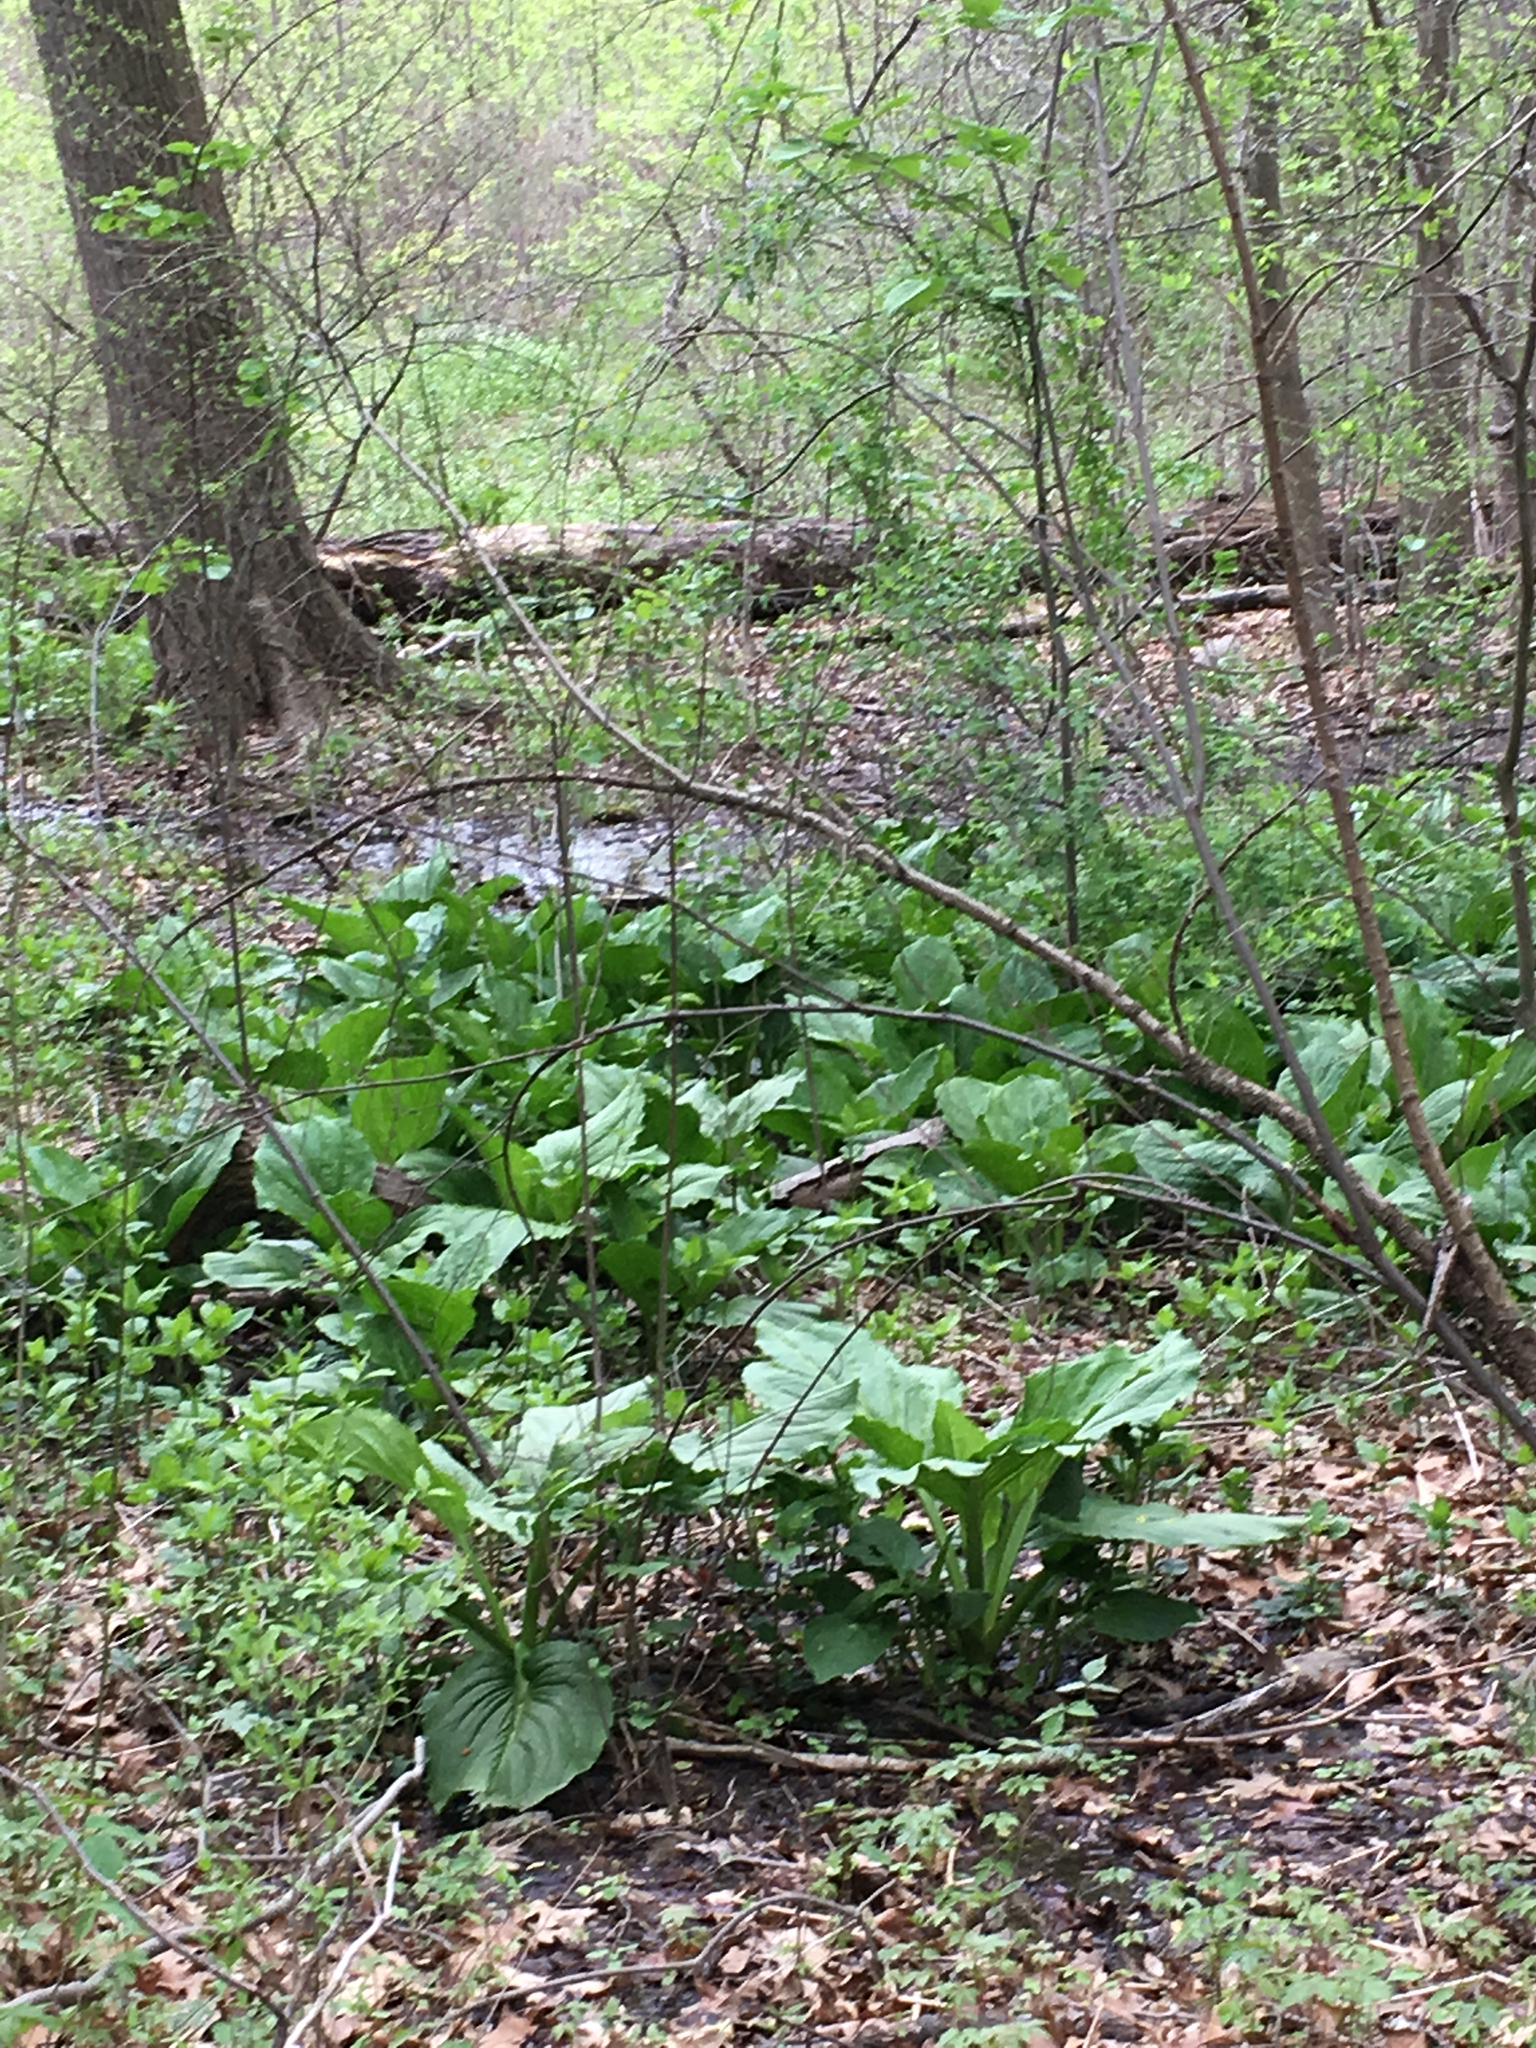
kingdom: Plantae
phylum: Tracheophyta
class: Liliopsida
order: Alismatales
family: Araceae
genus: Symplocarpus
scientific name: Symplocarpus foetidus
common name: Eastern skunk cabbage
